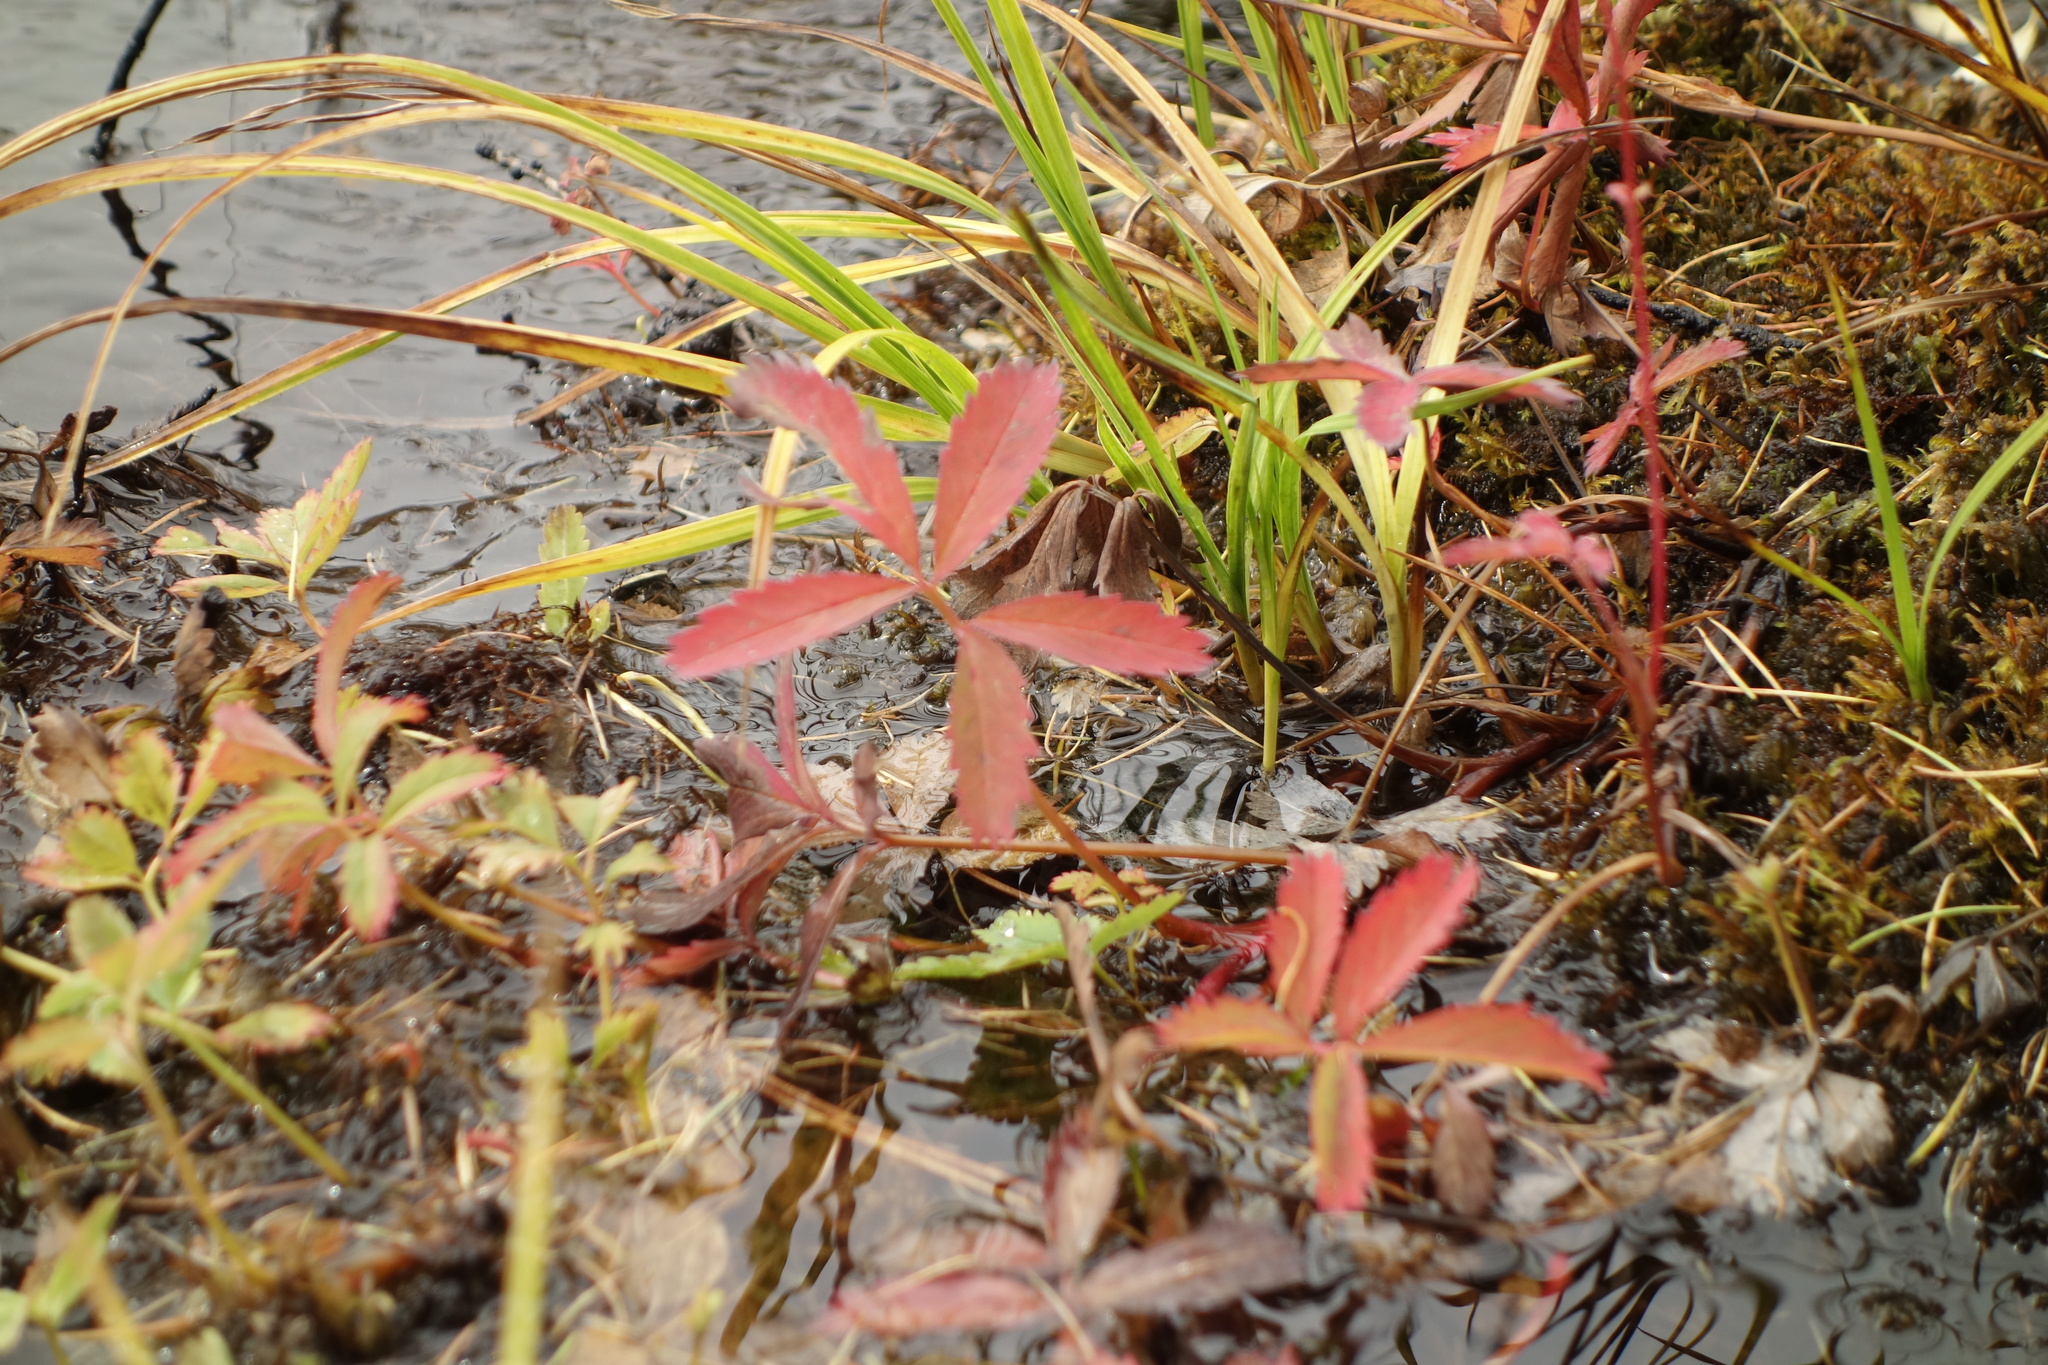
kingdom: Plantae
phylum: Tracheophyta
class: Magnoliopsida
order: Rosales
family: Rosaceae
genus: Comarum
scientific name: Comarum palustre
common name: Marsh cinquefoil
